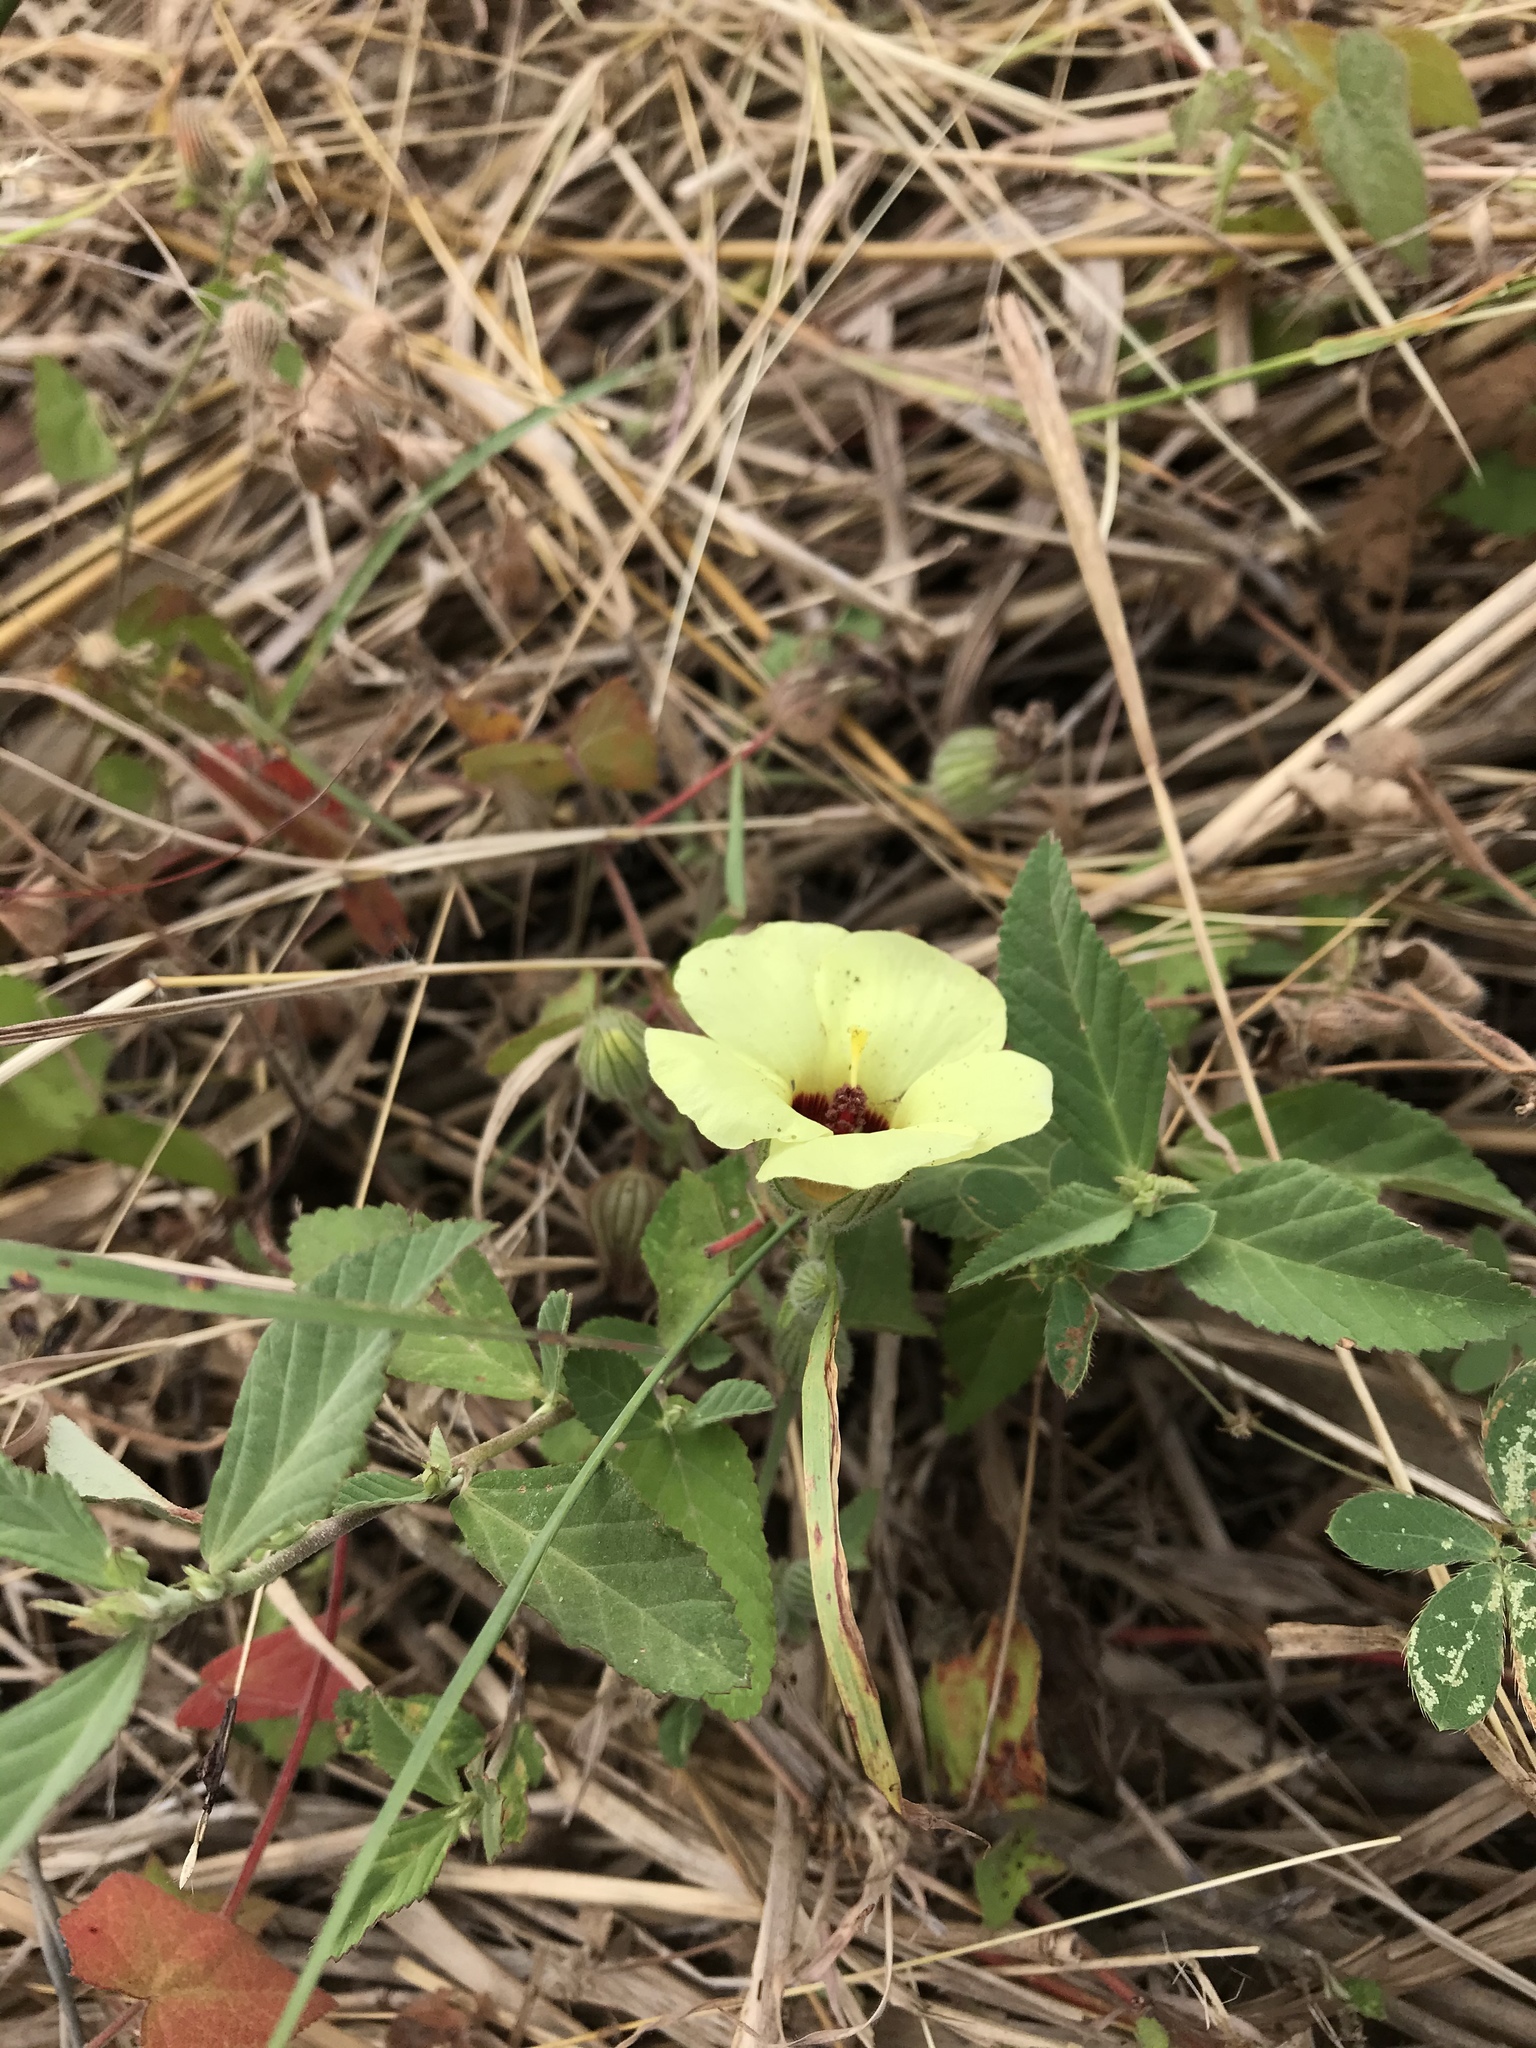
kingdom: Plantae
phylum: Tracheophyta
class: Magnoliopsida
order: Malvales
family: Malvaceae
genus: Pavonia
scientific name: Pavonia cancellata
